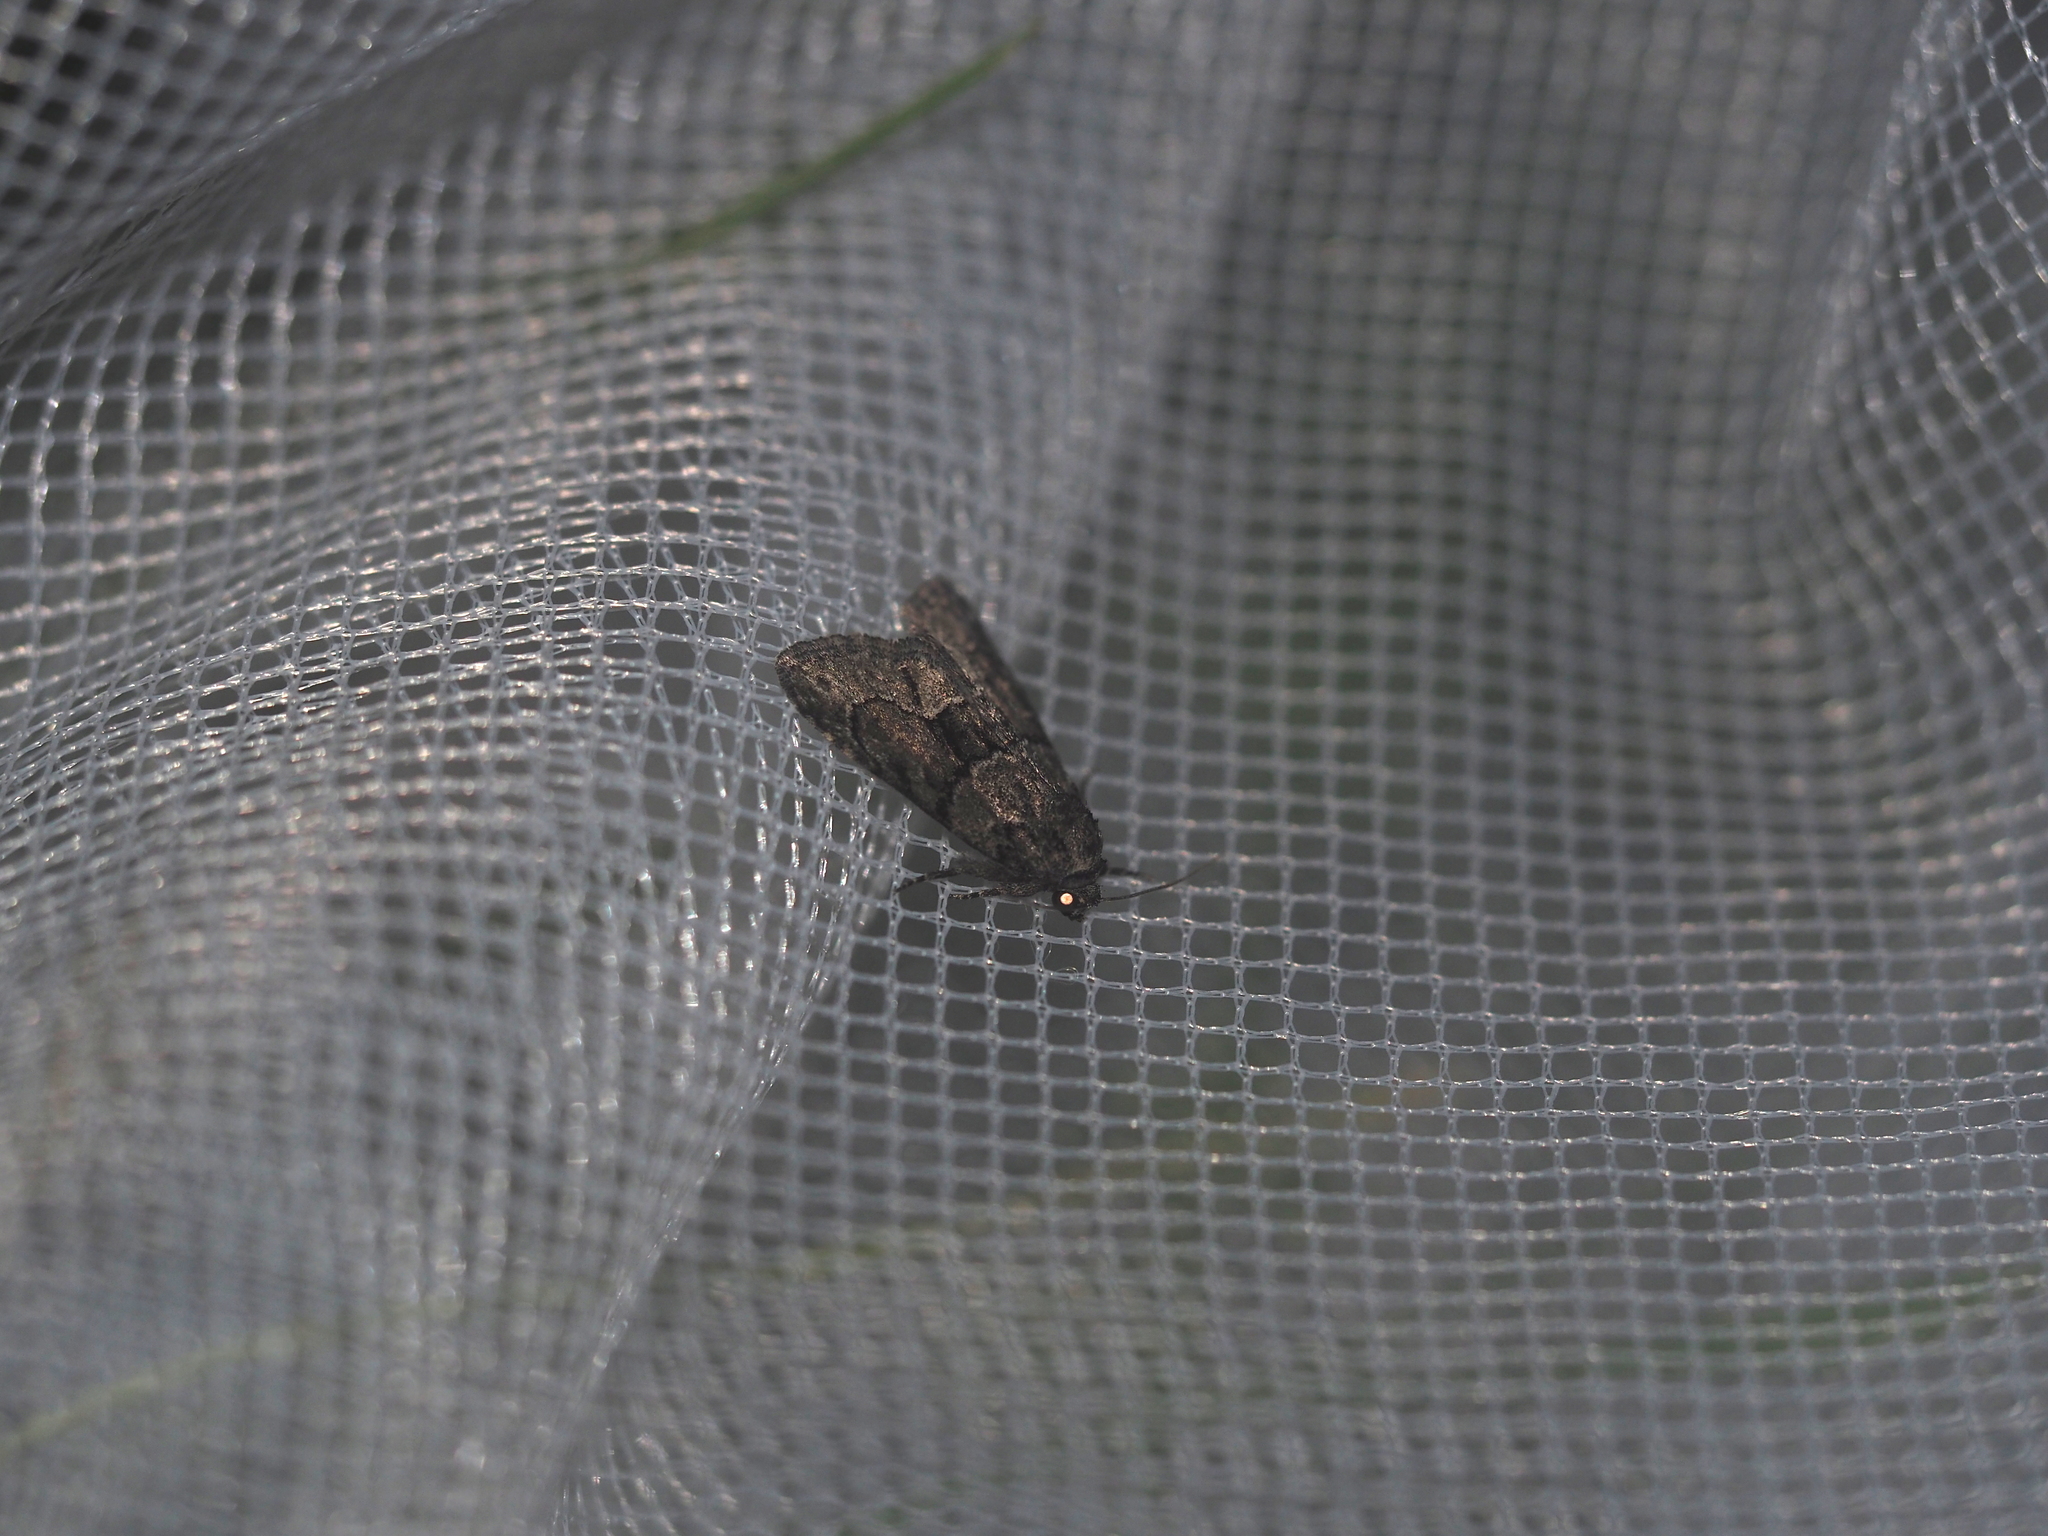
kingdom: Animalia
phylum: Arthropoda
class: Insecta
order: Lepidoptera
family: Noctuidae
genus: Cryphia
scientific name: Cryphia fraudatricula
